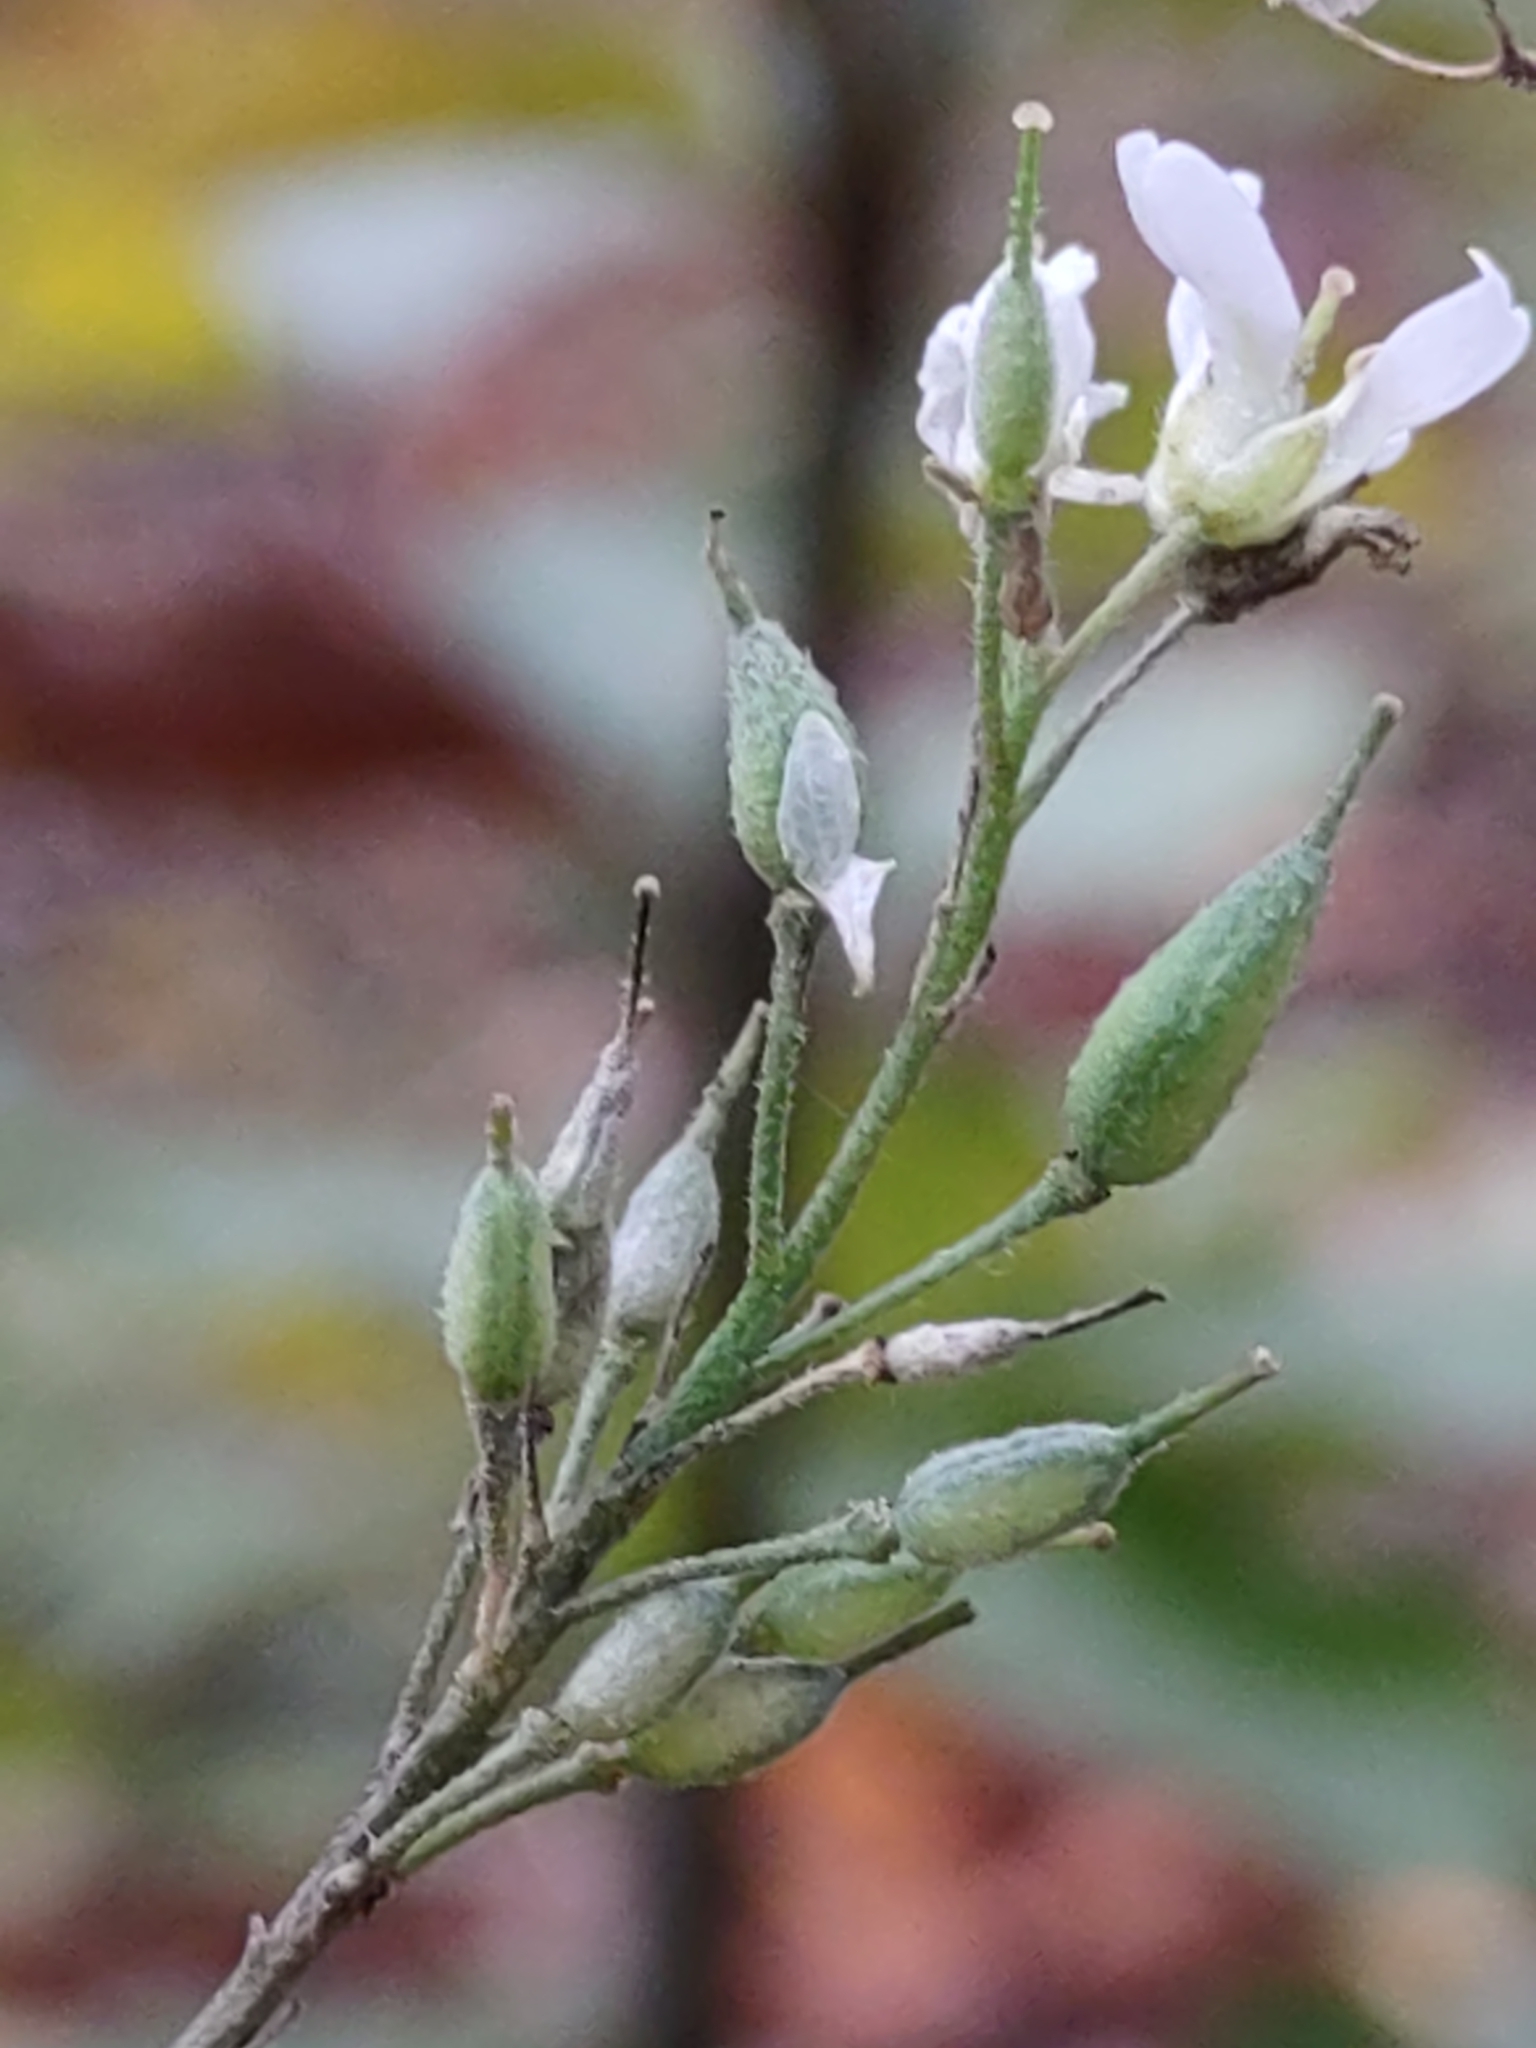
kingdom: Plantae
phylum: Tracheophyta
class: Magnoliopsida
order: Brassicales
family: Brassicaceae
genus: Berteroa
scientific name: Berteroa incana
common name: Hoary alison
